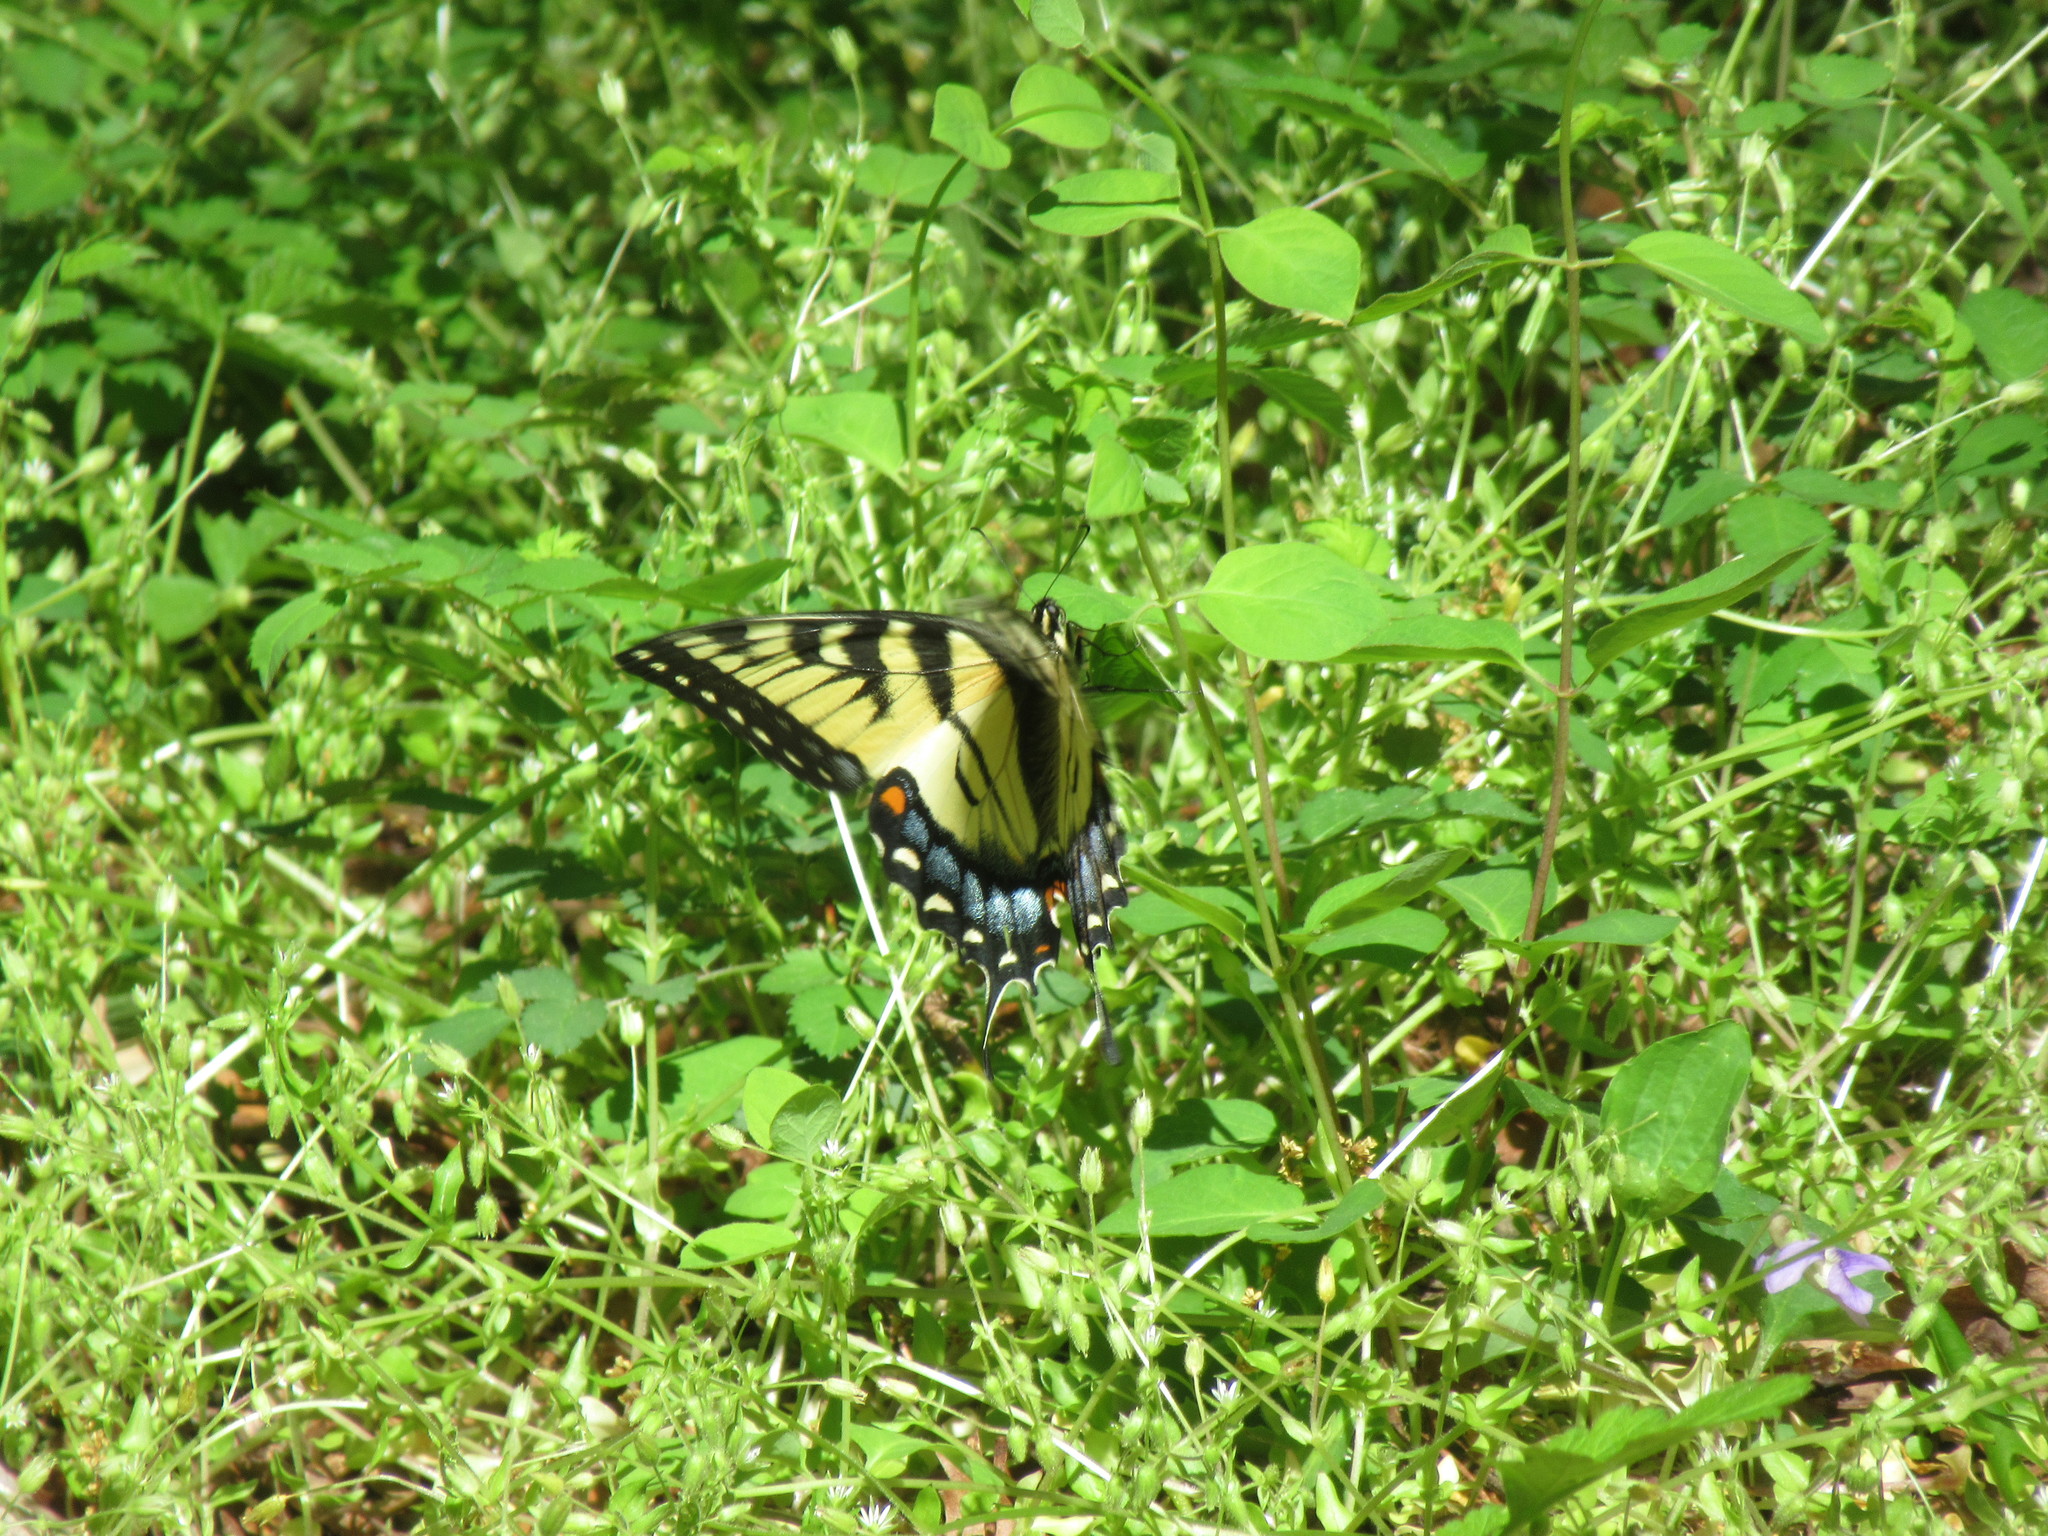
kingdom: Animalia
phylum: Arthropoda
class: Insecta
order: Lepidoptera
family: Papilionidae
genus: Papilio
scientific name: Papilio glaucus
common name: Tiger swallowtail
